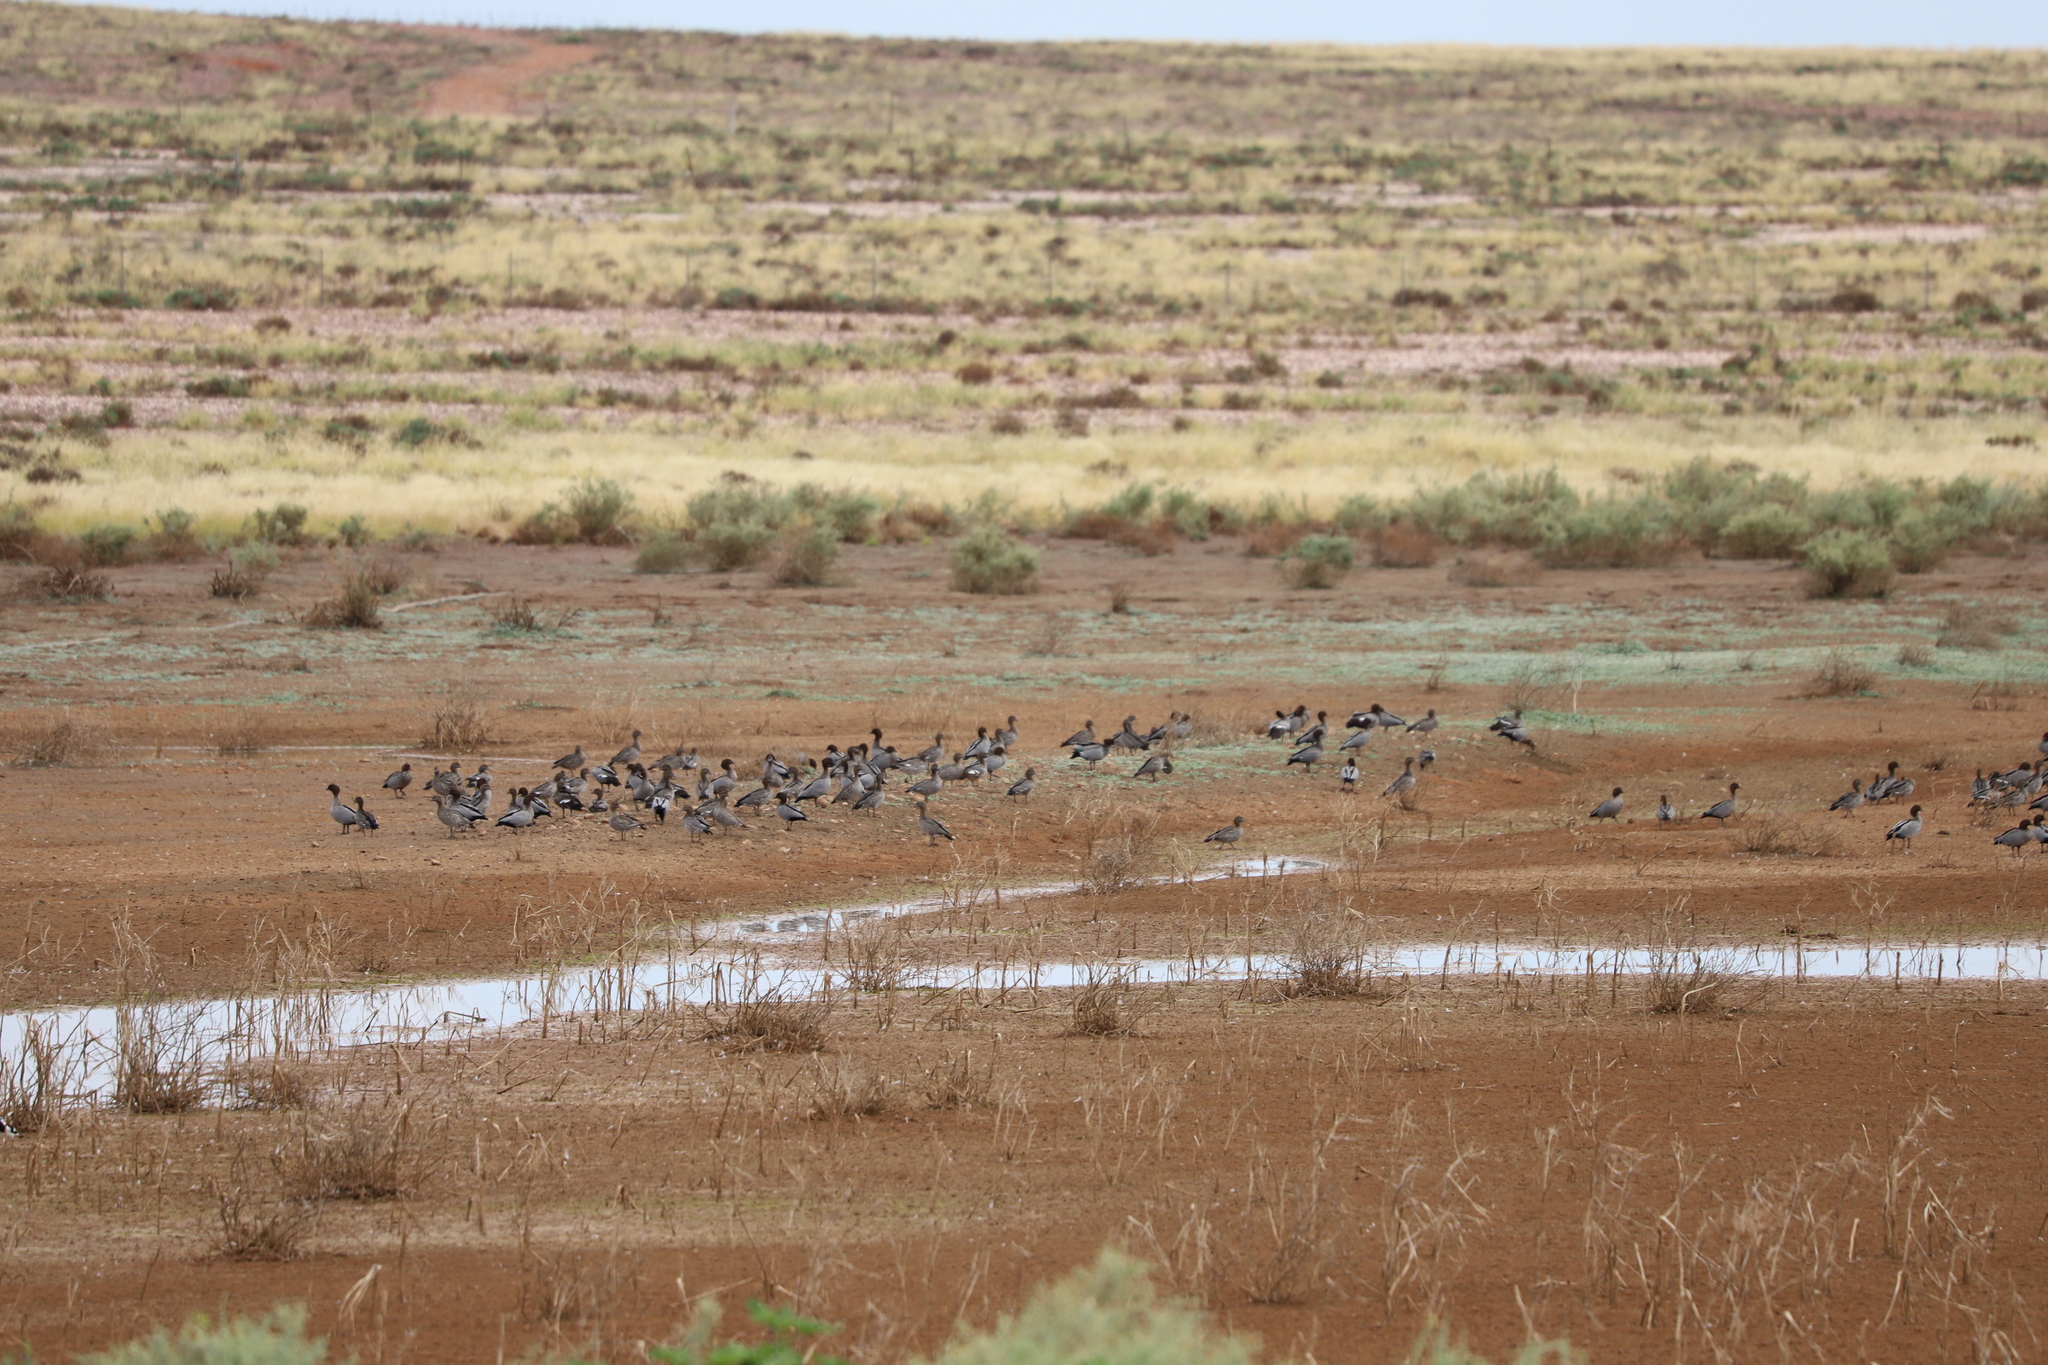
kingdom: Animalia
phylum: Chordata
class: Aves
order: Anseriformes
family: Anatidae
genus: Chenonetta
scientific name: Chenonetta jubata
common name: Maned duck
